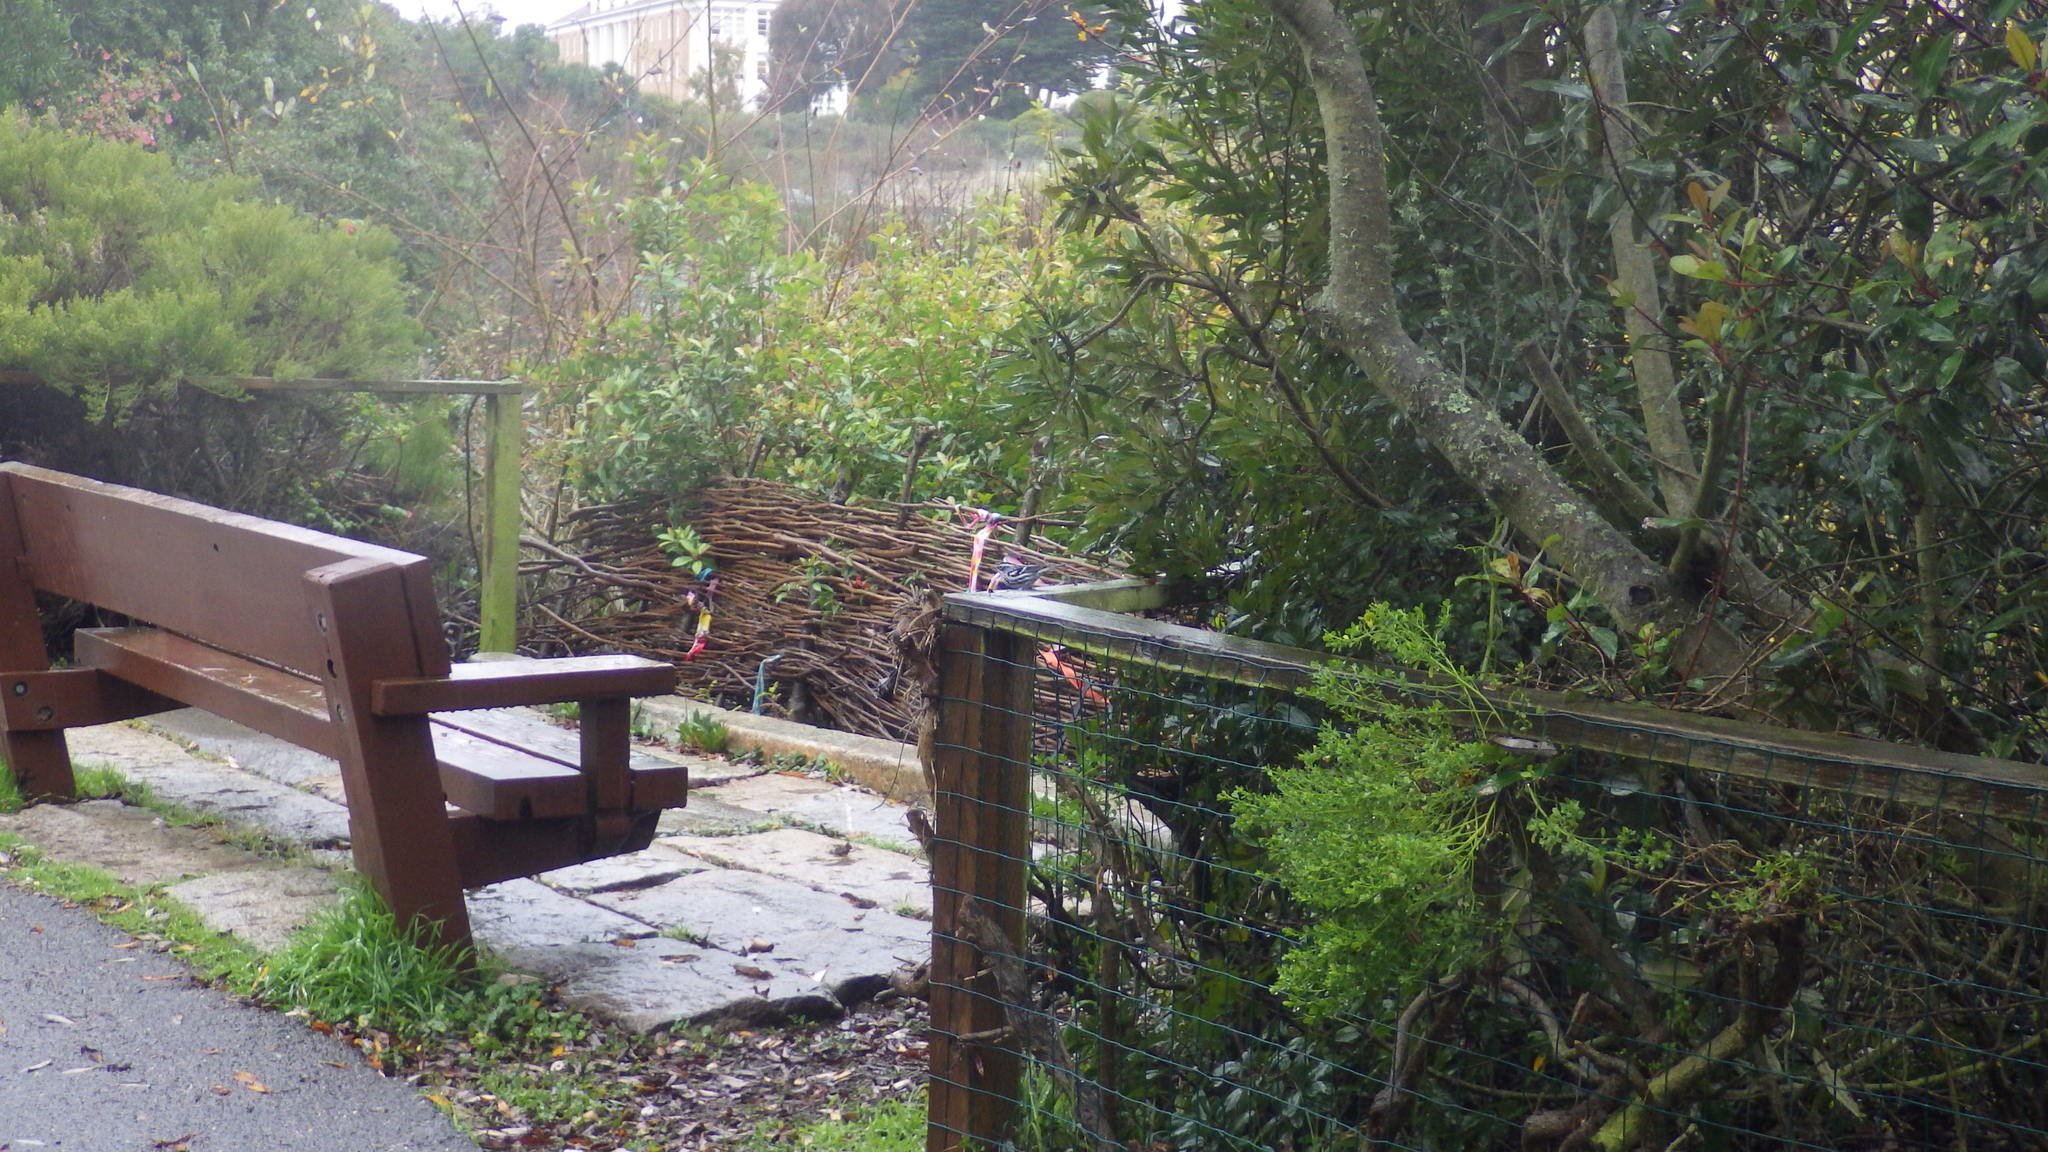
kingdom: Animalia
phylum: Chordata
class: Aves
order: Passeriformes
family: Parulidae
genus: Mniotilta
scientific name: Mniotilta varia
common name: Black-and-white warbler
